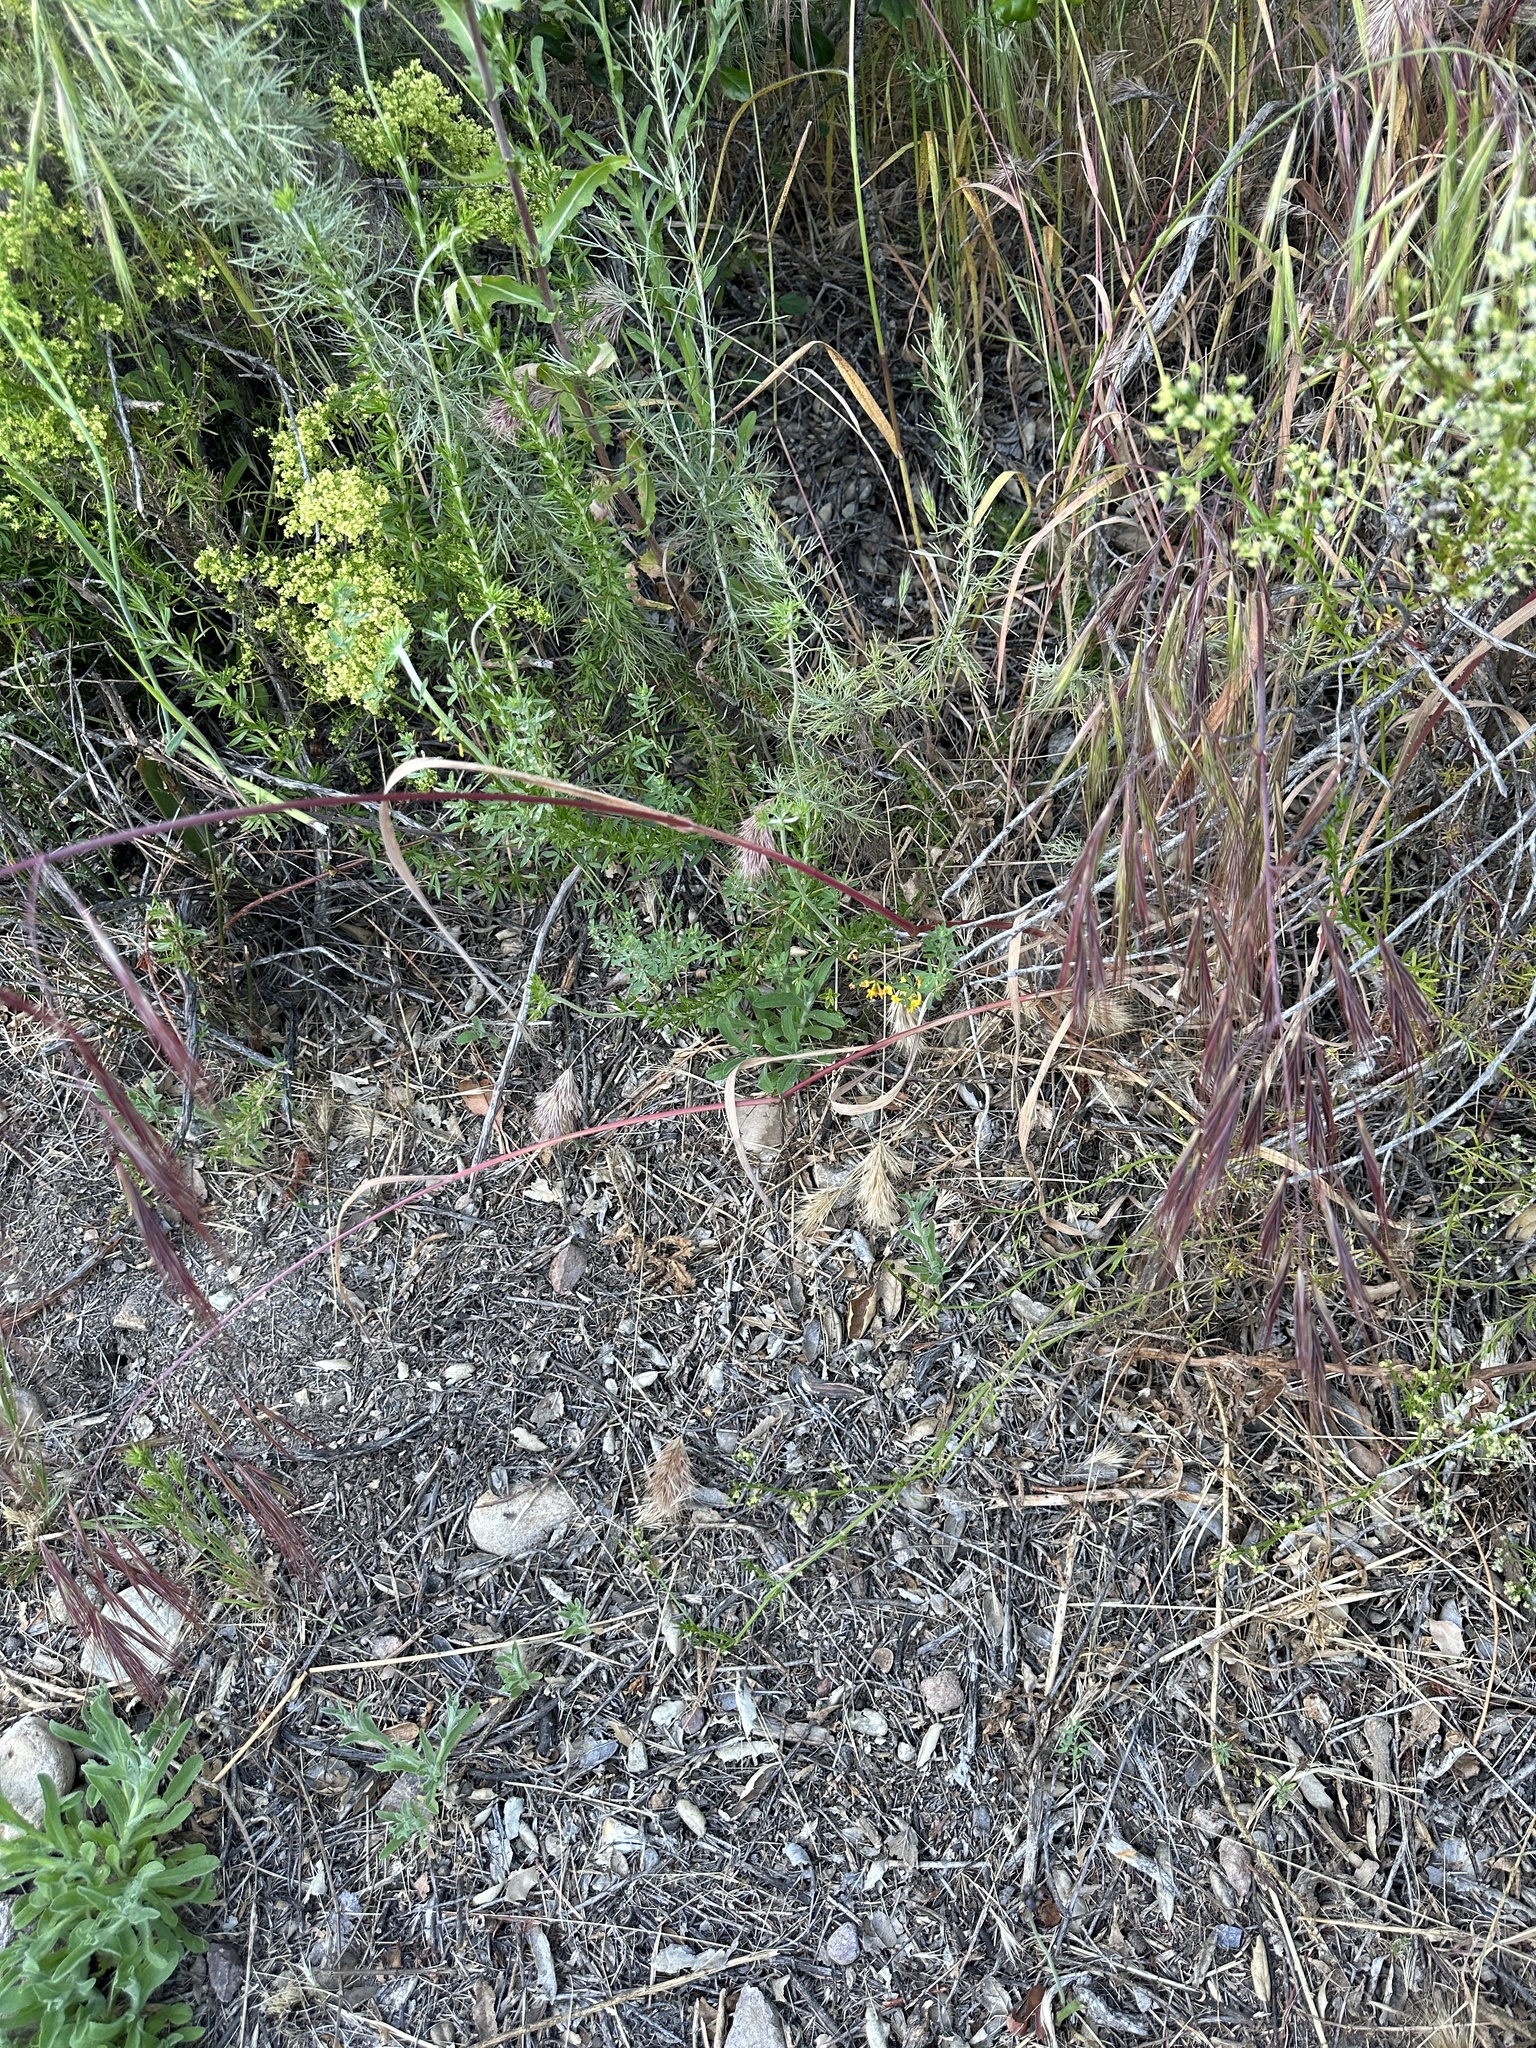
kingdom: Plantae
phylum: Tracheophyta
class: Liliopsida
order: Poales
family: Poaceae
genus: Bromus
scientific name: Bromus diandrus
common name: Ripgut brome
